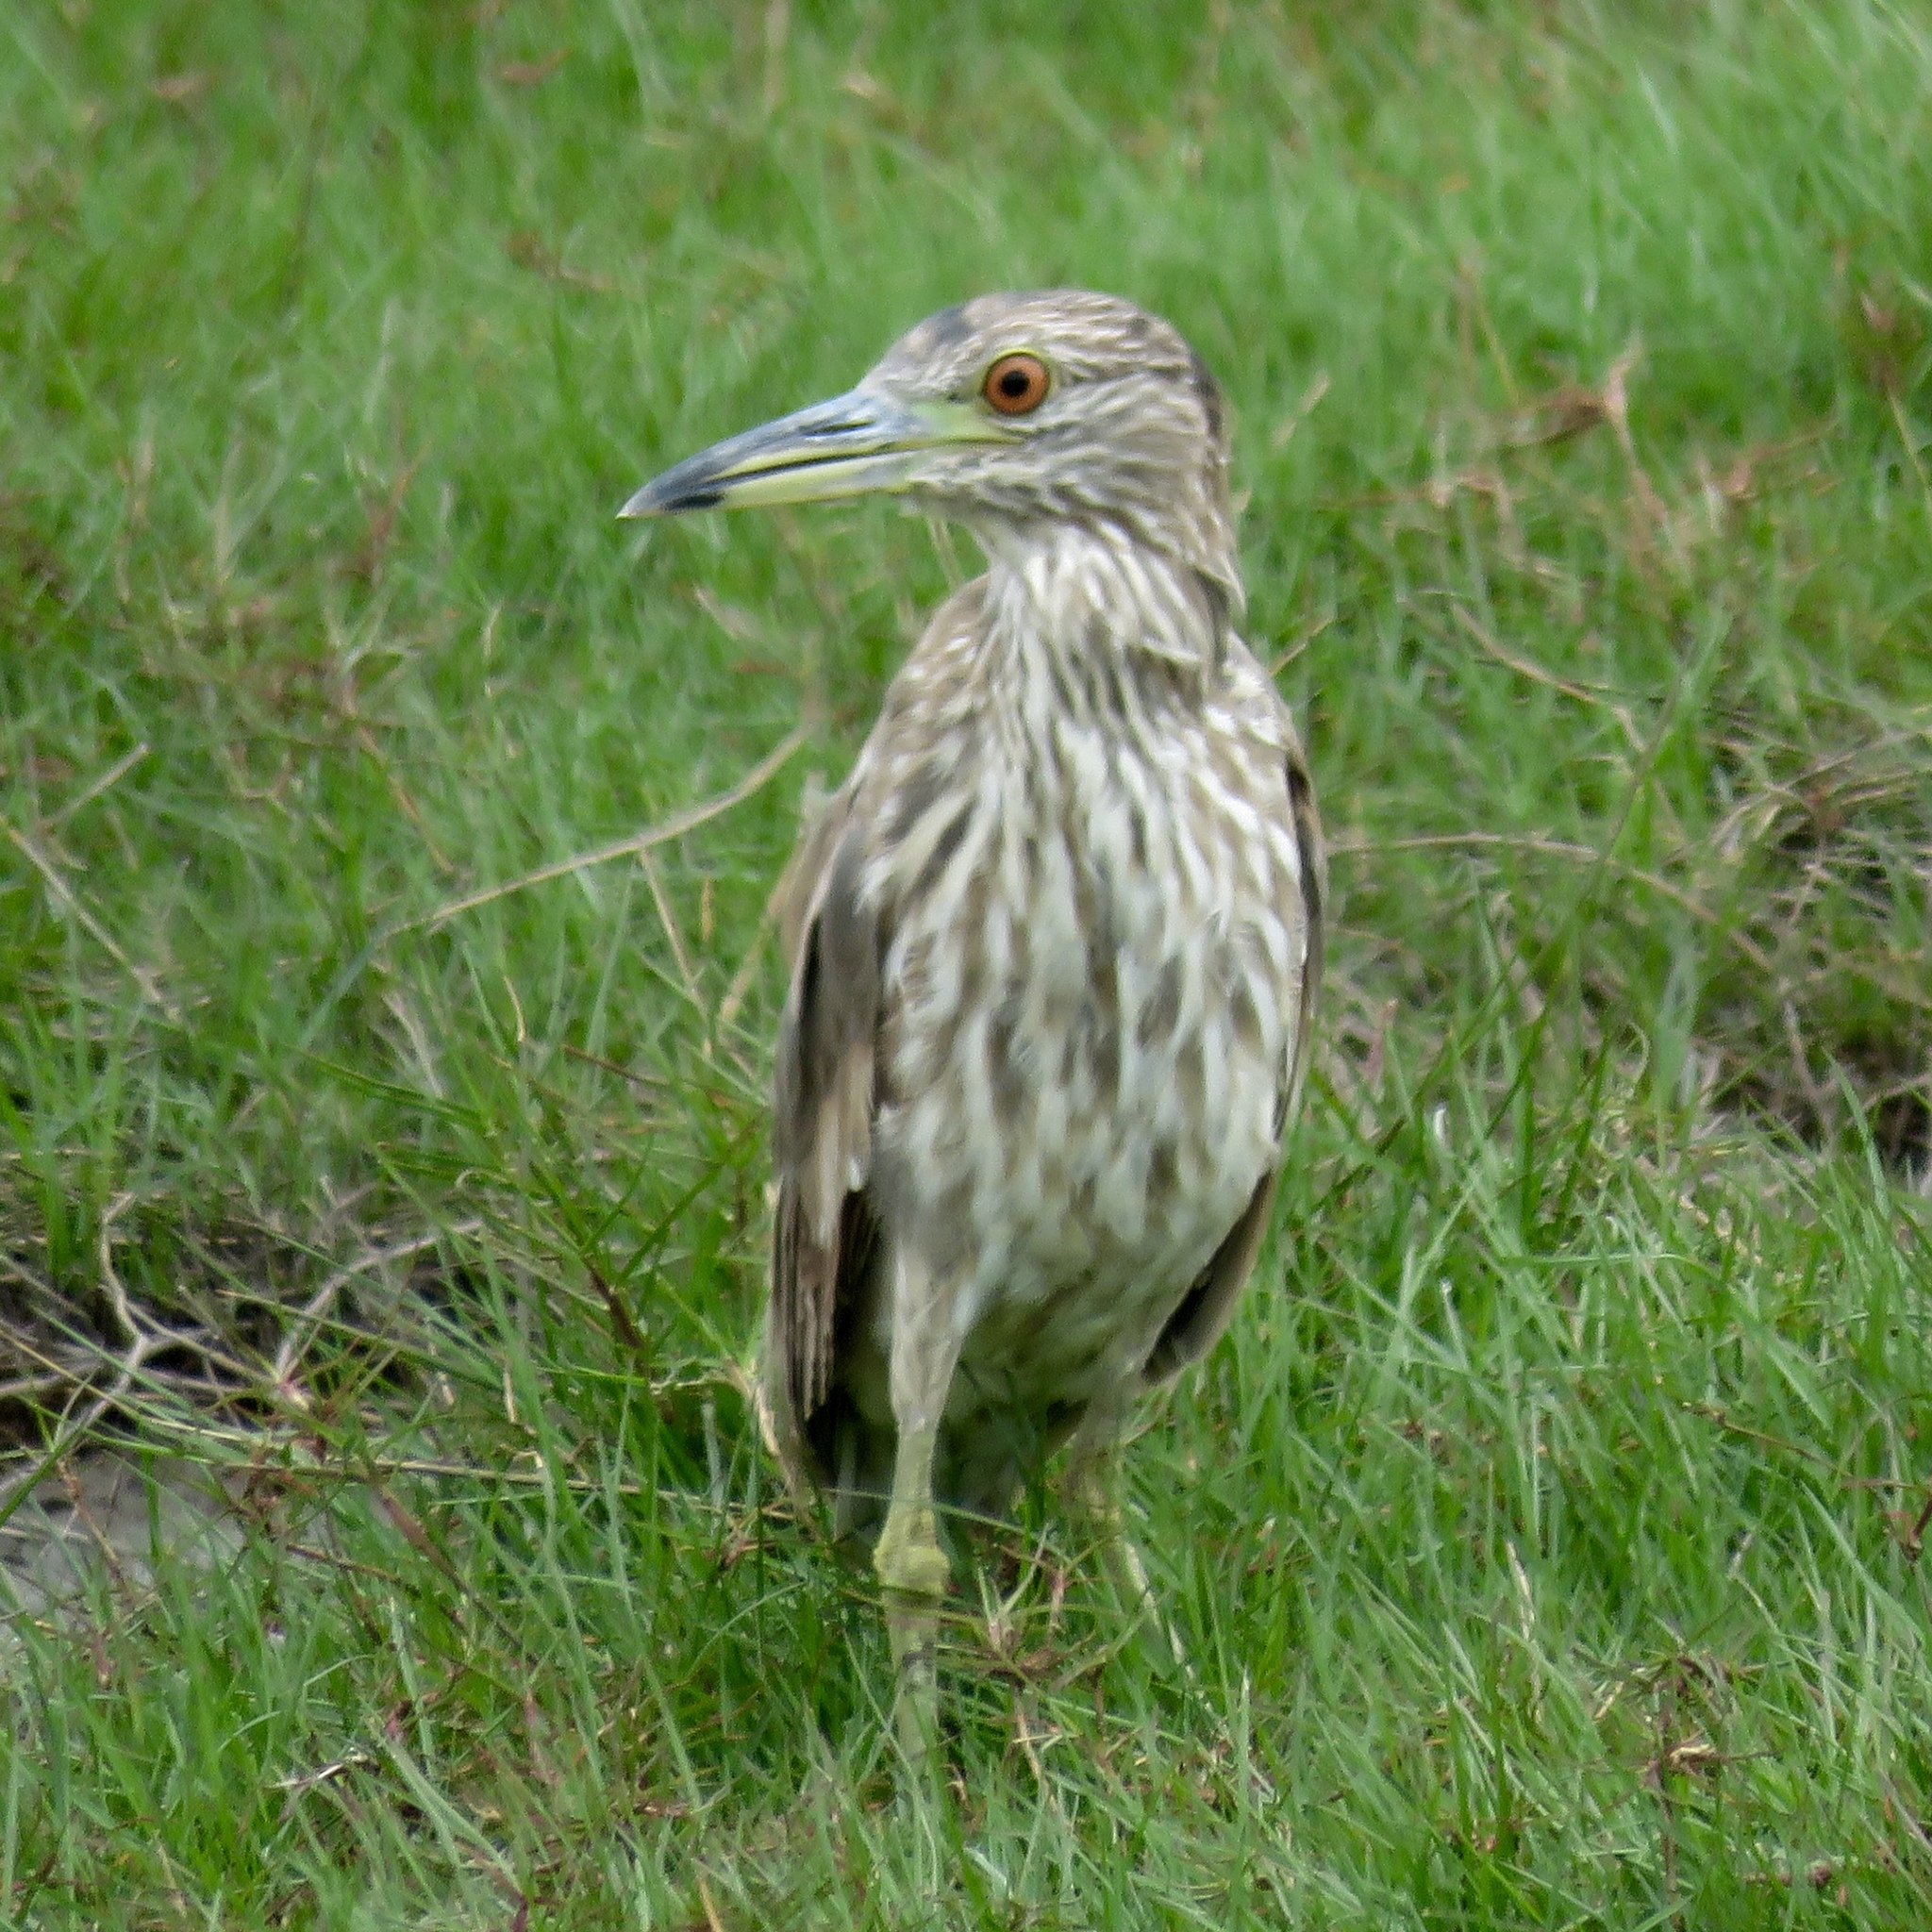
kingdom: Animalia
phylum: Chordata
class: Aves
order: Pelecaniformes
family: Ardeidae
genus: Nycticorax
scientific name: Nycticorax nycticorax
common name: Black-crowned night heron
